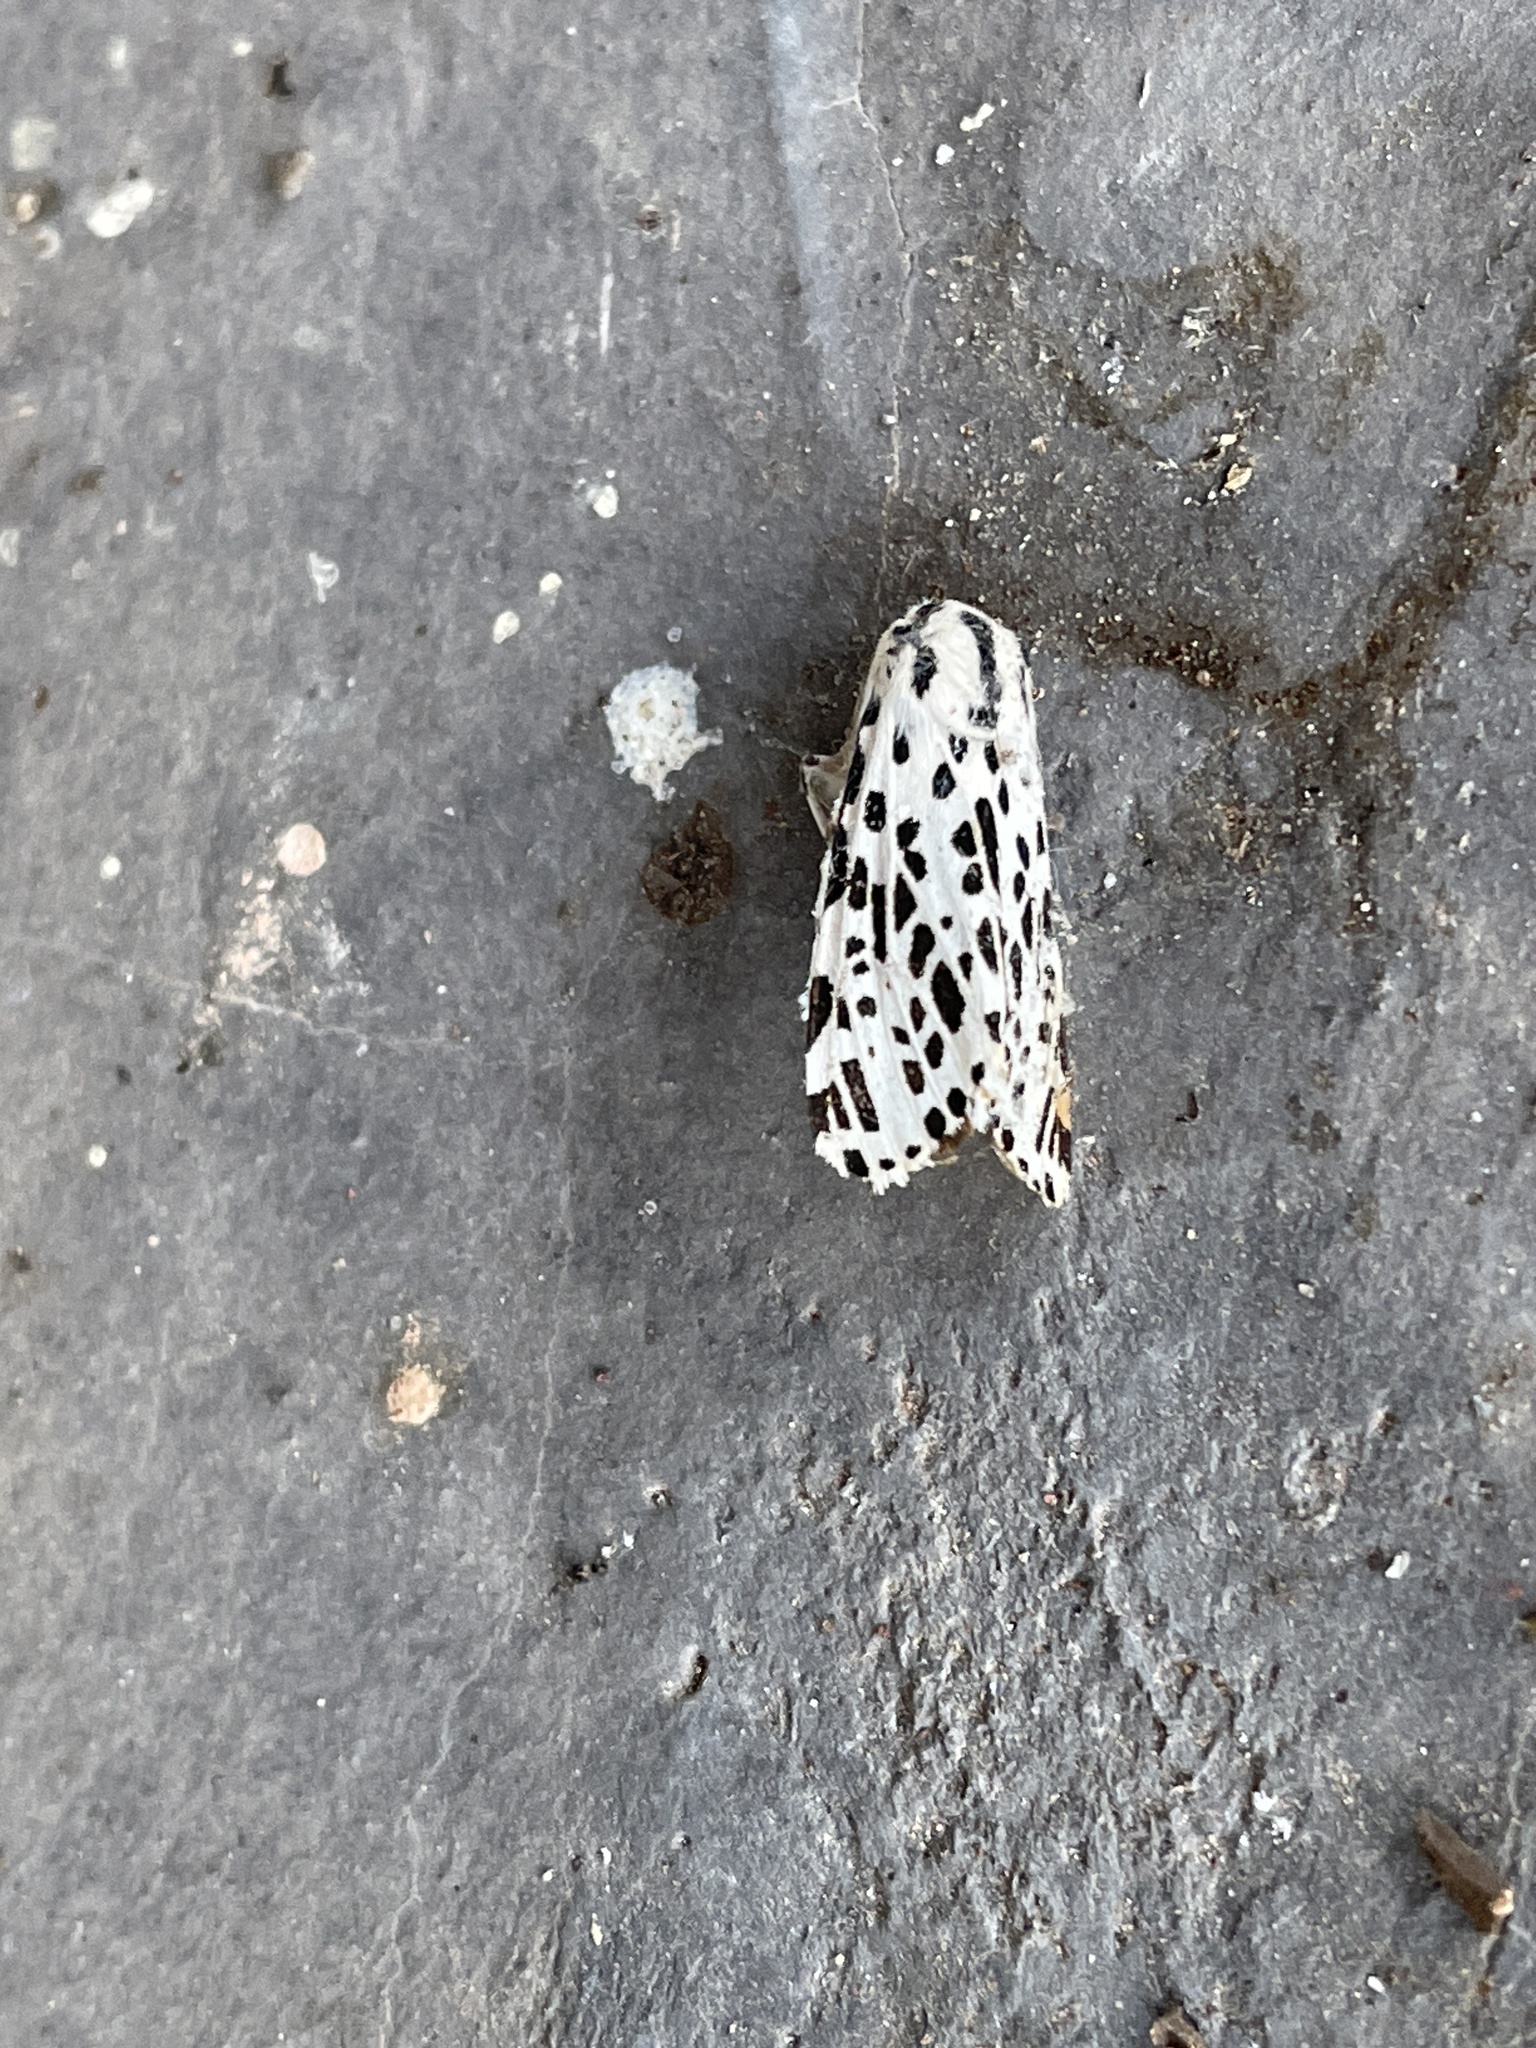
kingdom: Animalia
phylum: Arthropoda
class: Insecta
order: Lepidoptera
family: Erebidae
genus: Hypercompe
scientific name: Hypercompe permaculata
